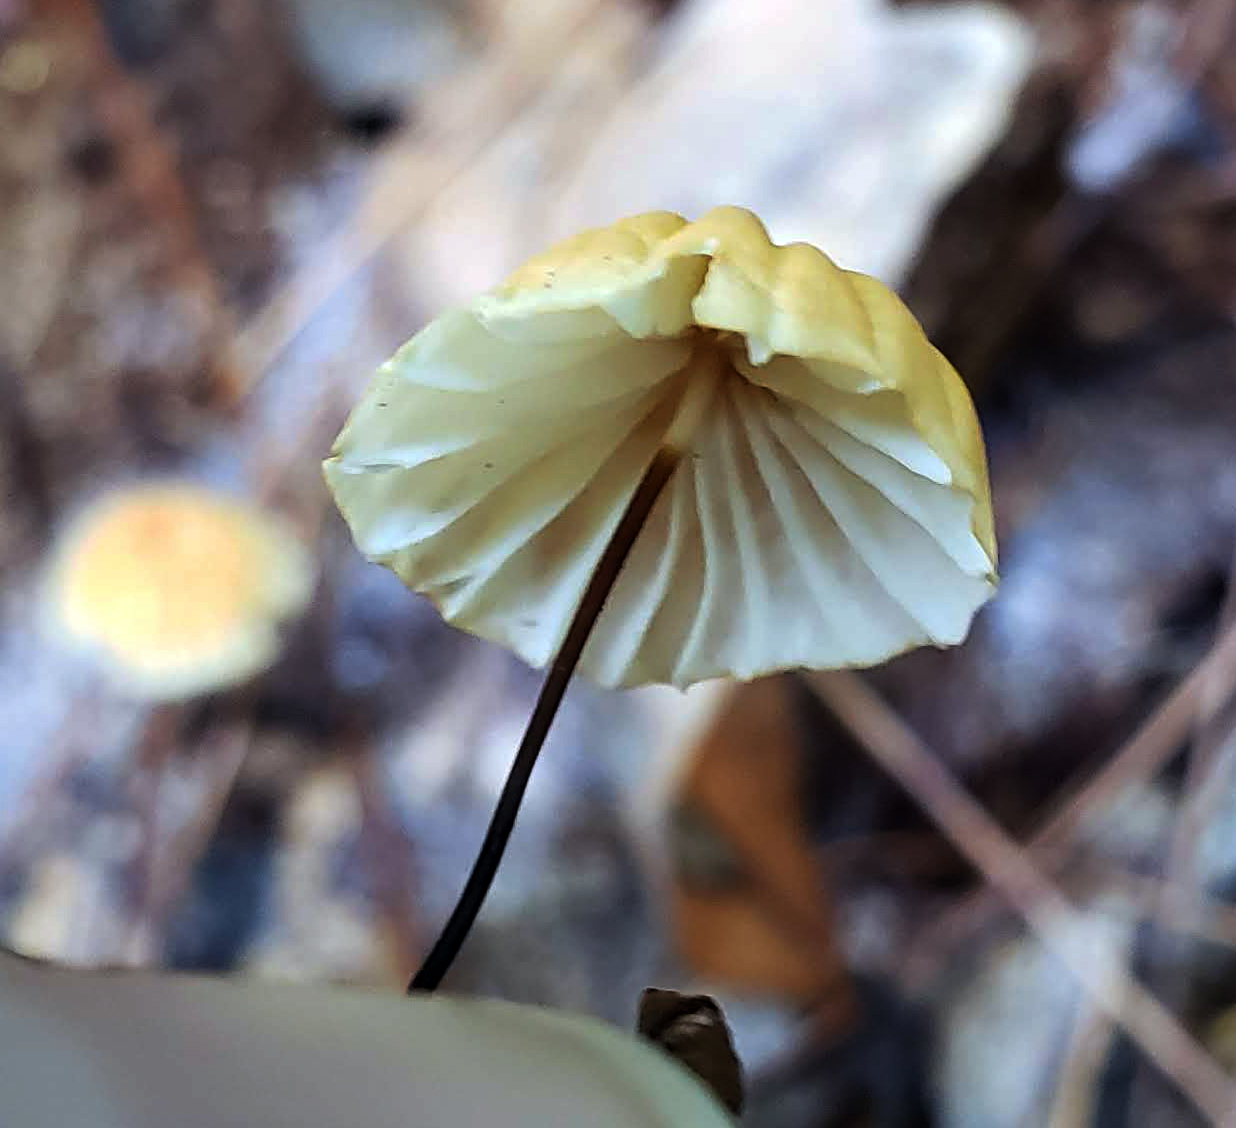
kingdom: Fungi
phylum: Basidiomycota
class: Agaricomycetes
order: Agaricales
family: Marasmiaceae
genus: Marasmius
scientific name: Marasmius siccus
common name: Orange pinwheel
